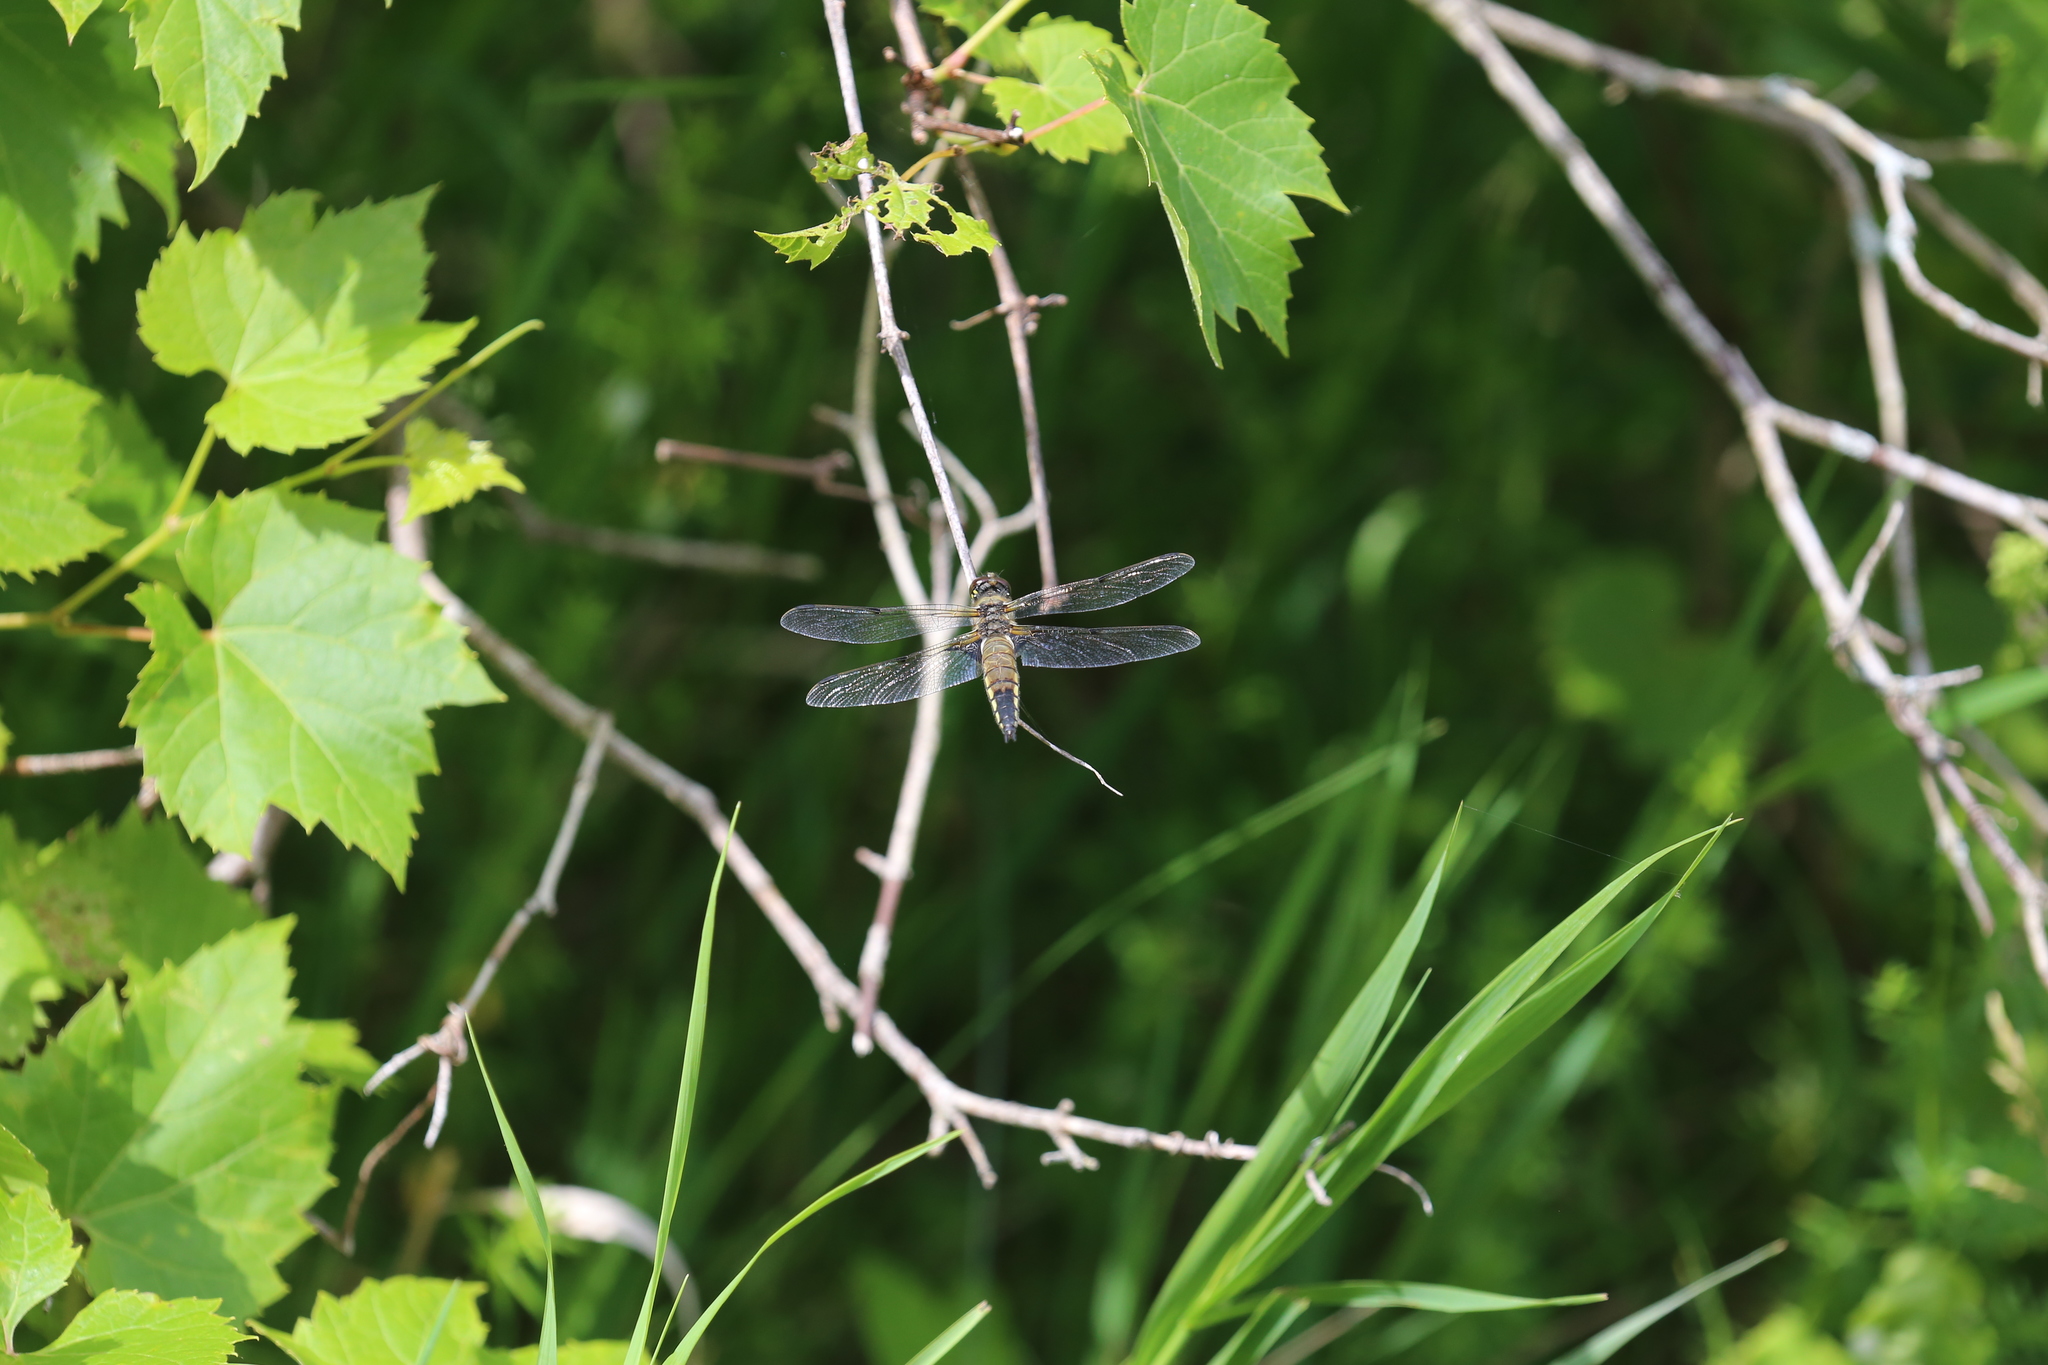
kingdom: Animalia
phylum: Arthropoda
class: Insecta
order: Odonata
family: Libellulidae
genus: Libellula
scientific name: Libellula quadrimaculata
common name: Four-spotted chaser
